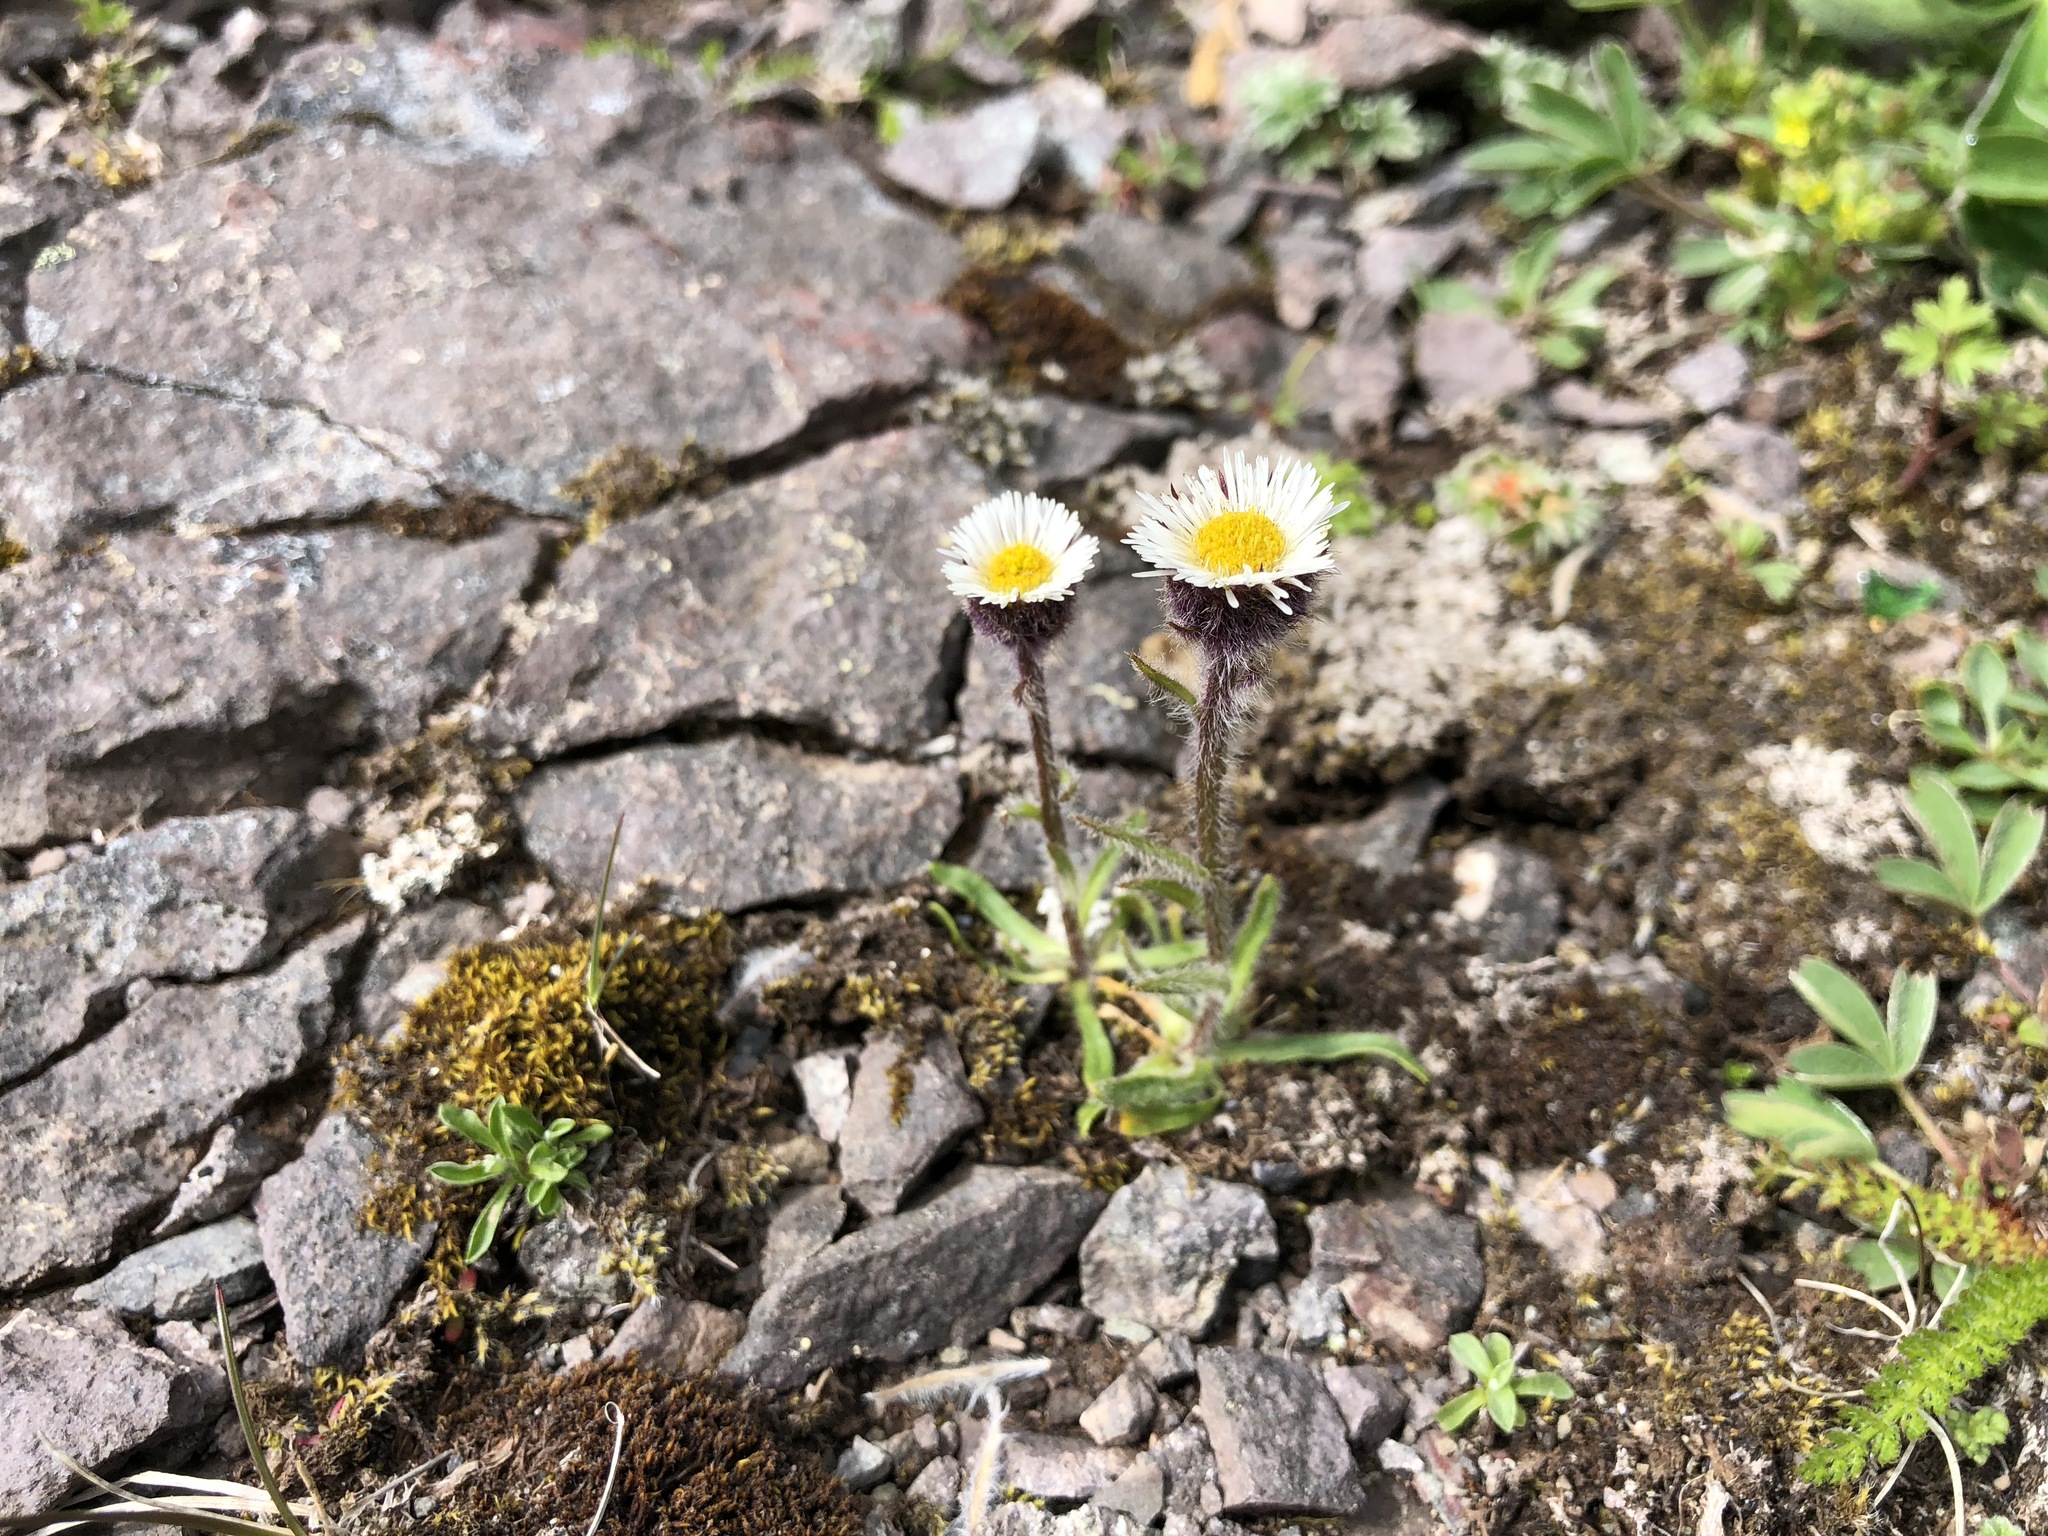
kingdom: Plantae
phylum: Tracheophyta
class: Magnoliopsida
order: Asterales
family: Asteraceae
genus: Erigeron
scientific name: Erigeron humilis
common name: Arctic-alpine fleabane
